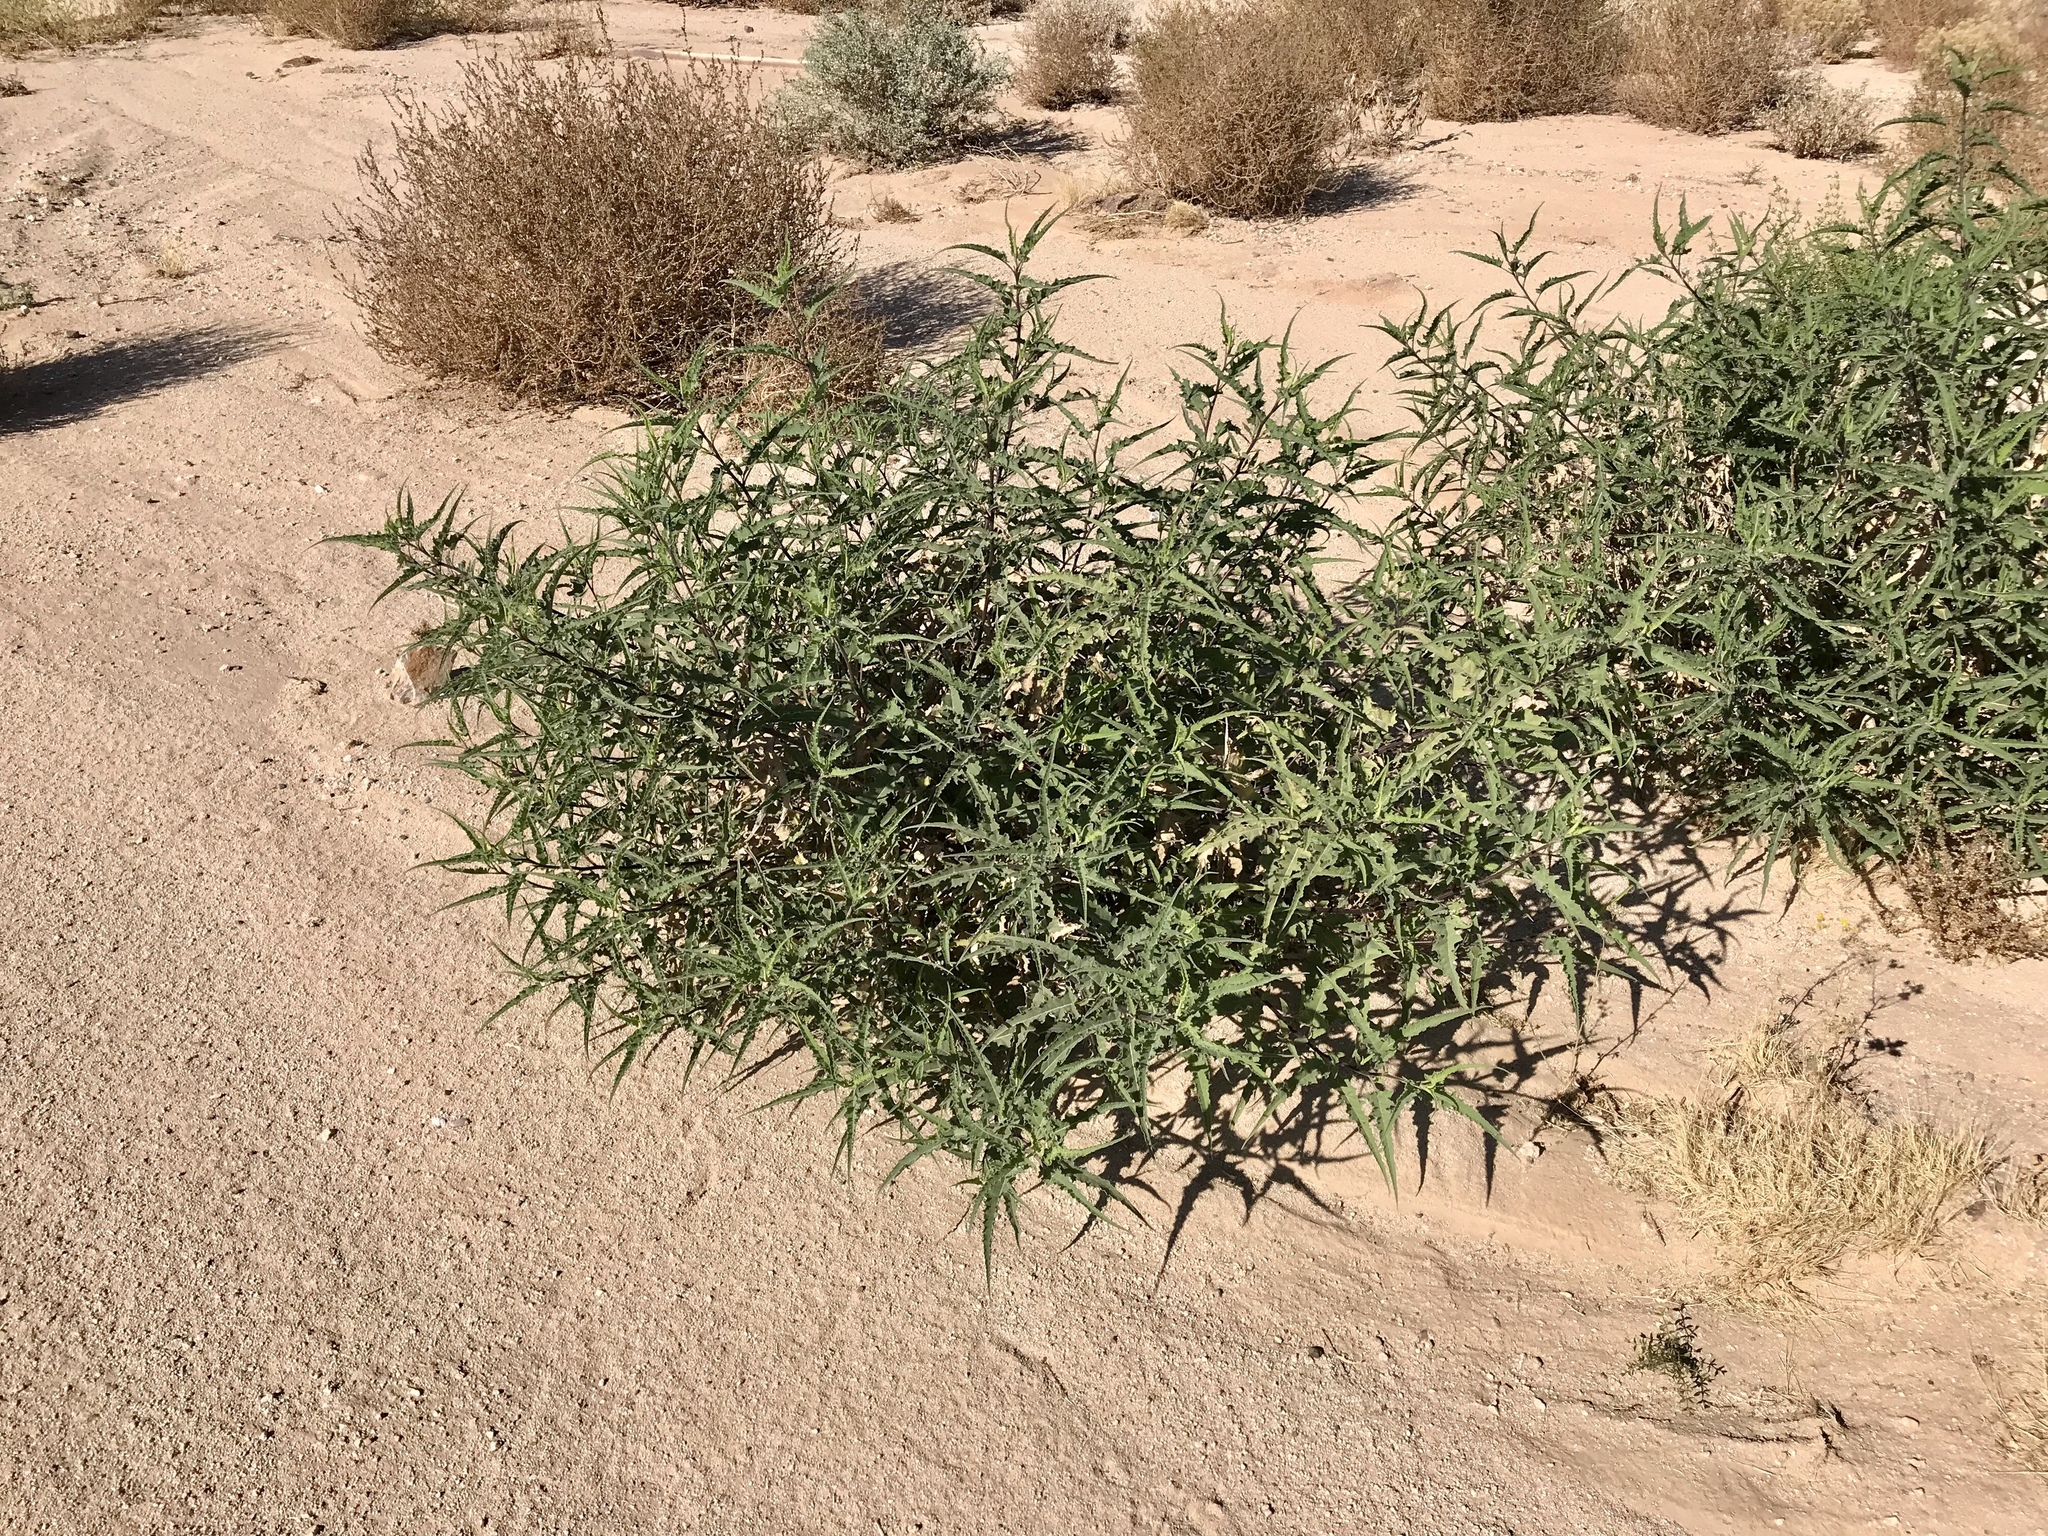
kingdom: Plantae
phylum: Tracheophyta
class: Magnoliopsida
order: Asterales
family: Asteraceae
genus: Ambrosia
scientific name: Ambrosia ambrosioides
